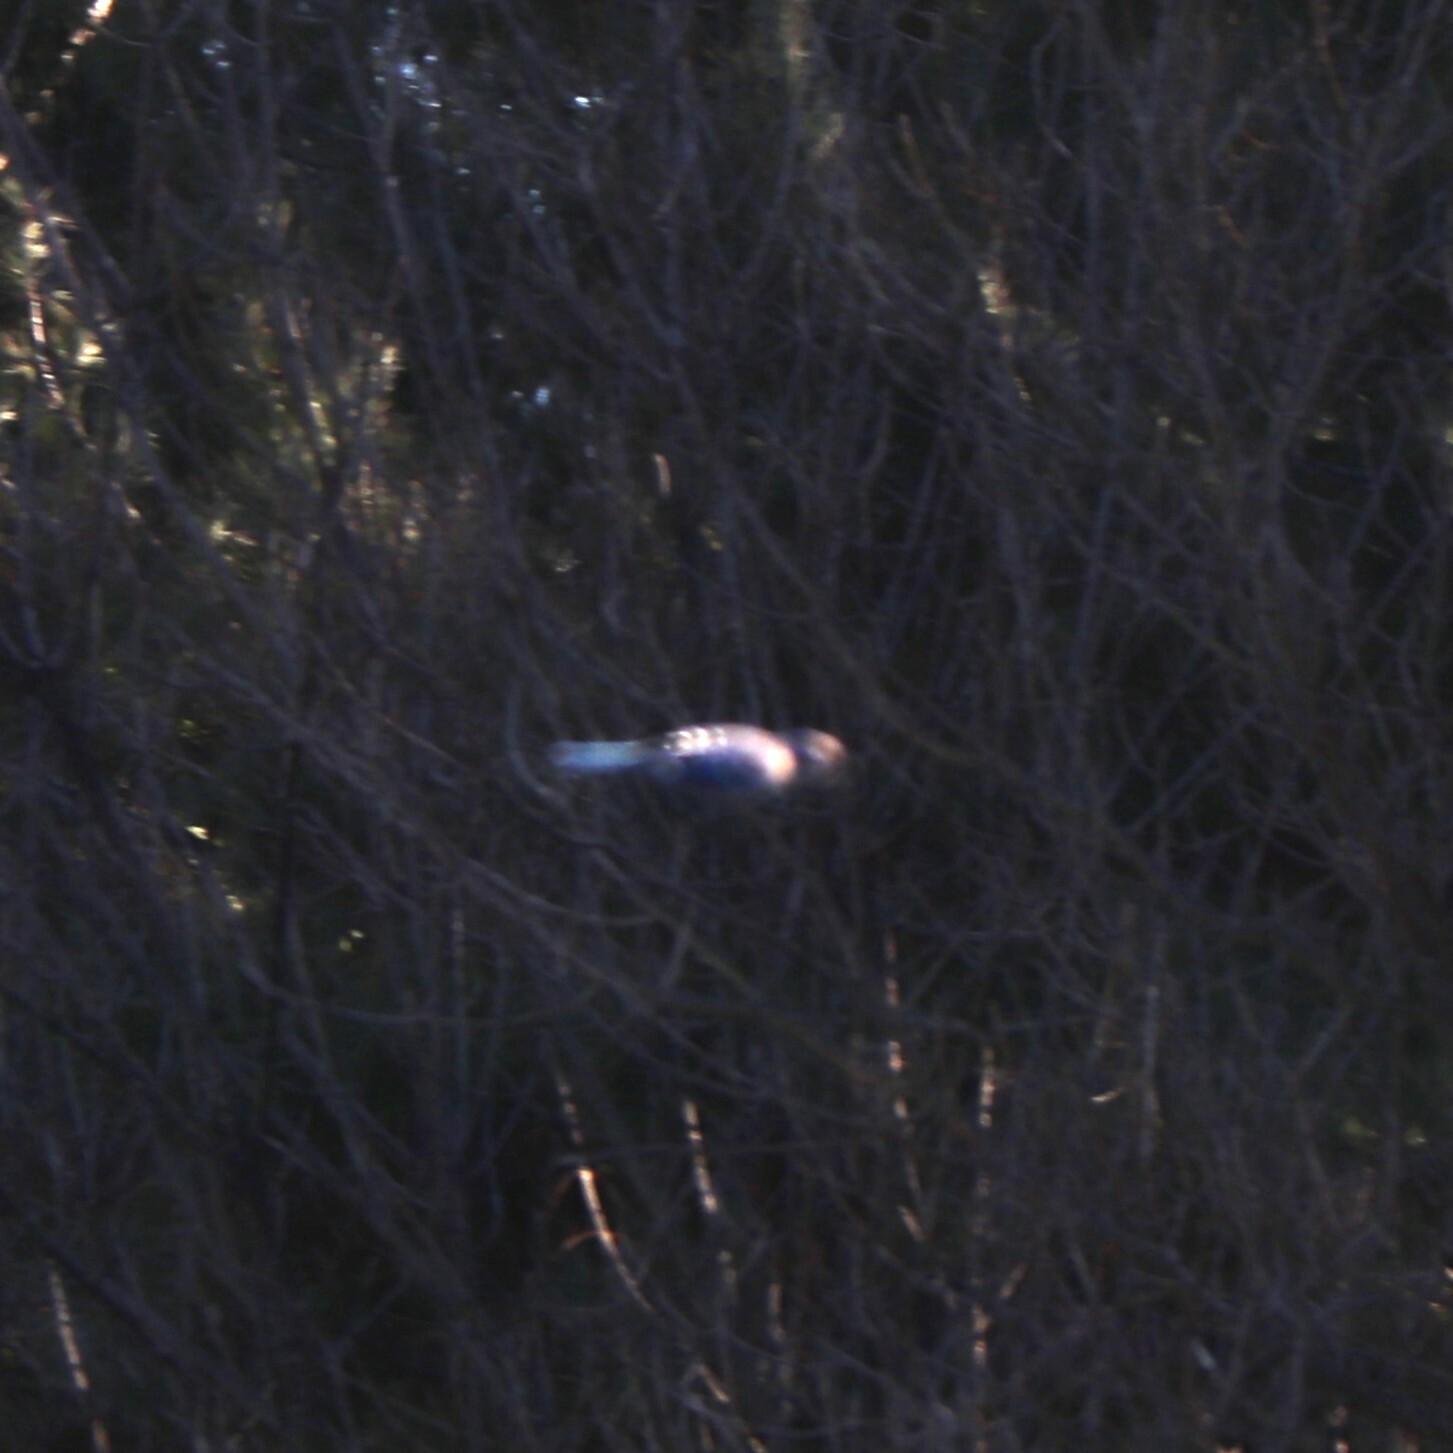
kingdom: Animalia
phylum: Chordata
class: Aves
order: Passeriformes
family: Corvidae
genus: Cyanocitta
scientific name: Cyanocitta cristata
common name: Blue jay
